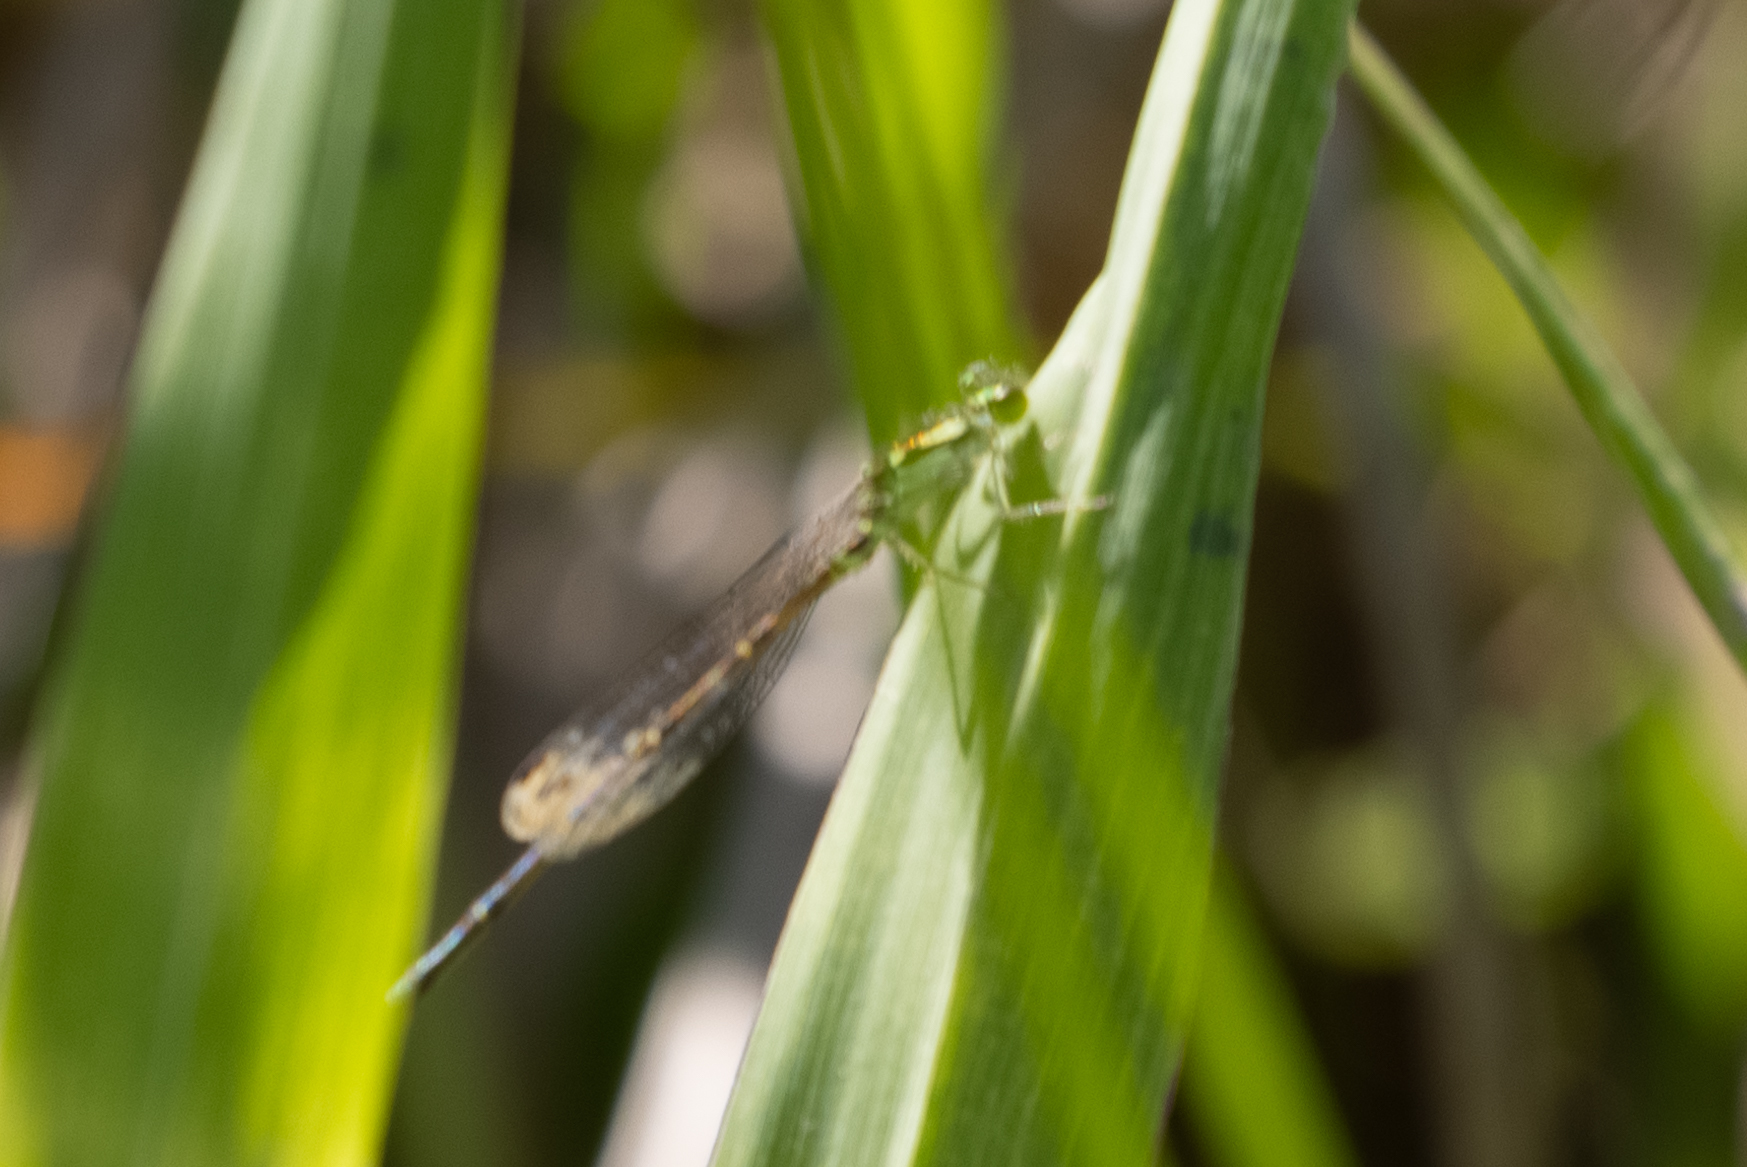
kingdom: Animalia
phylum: Arthropoda
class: Insecta
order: Odonata
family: Coenagrionidae
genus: Ischnura
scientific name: Ischnura posita
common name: Fragile forktail
